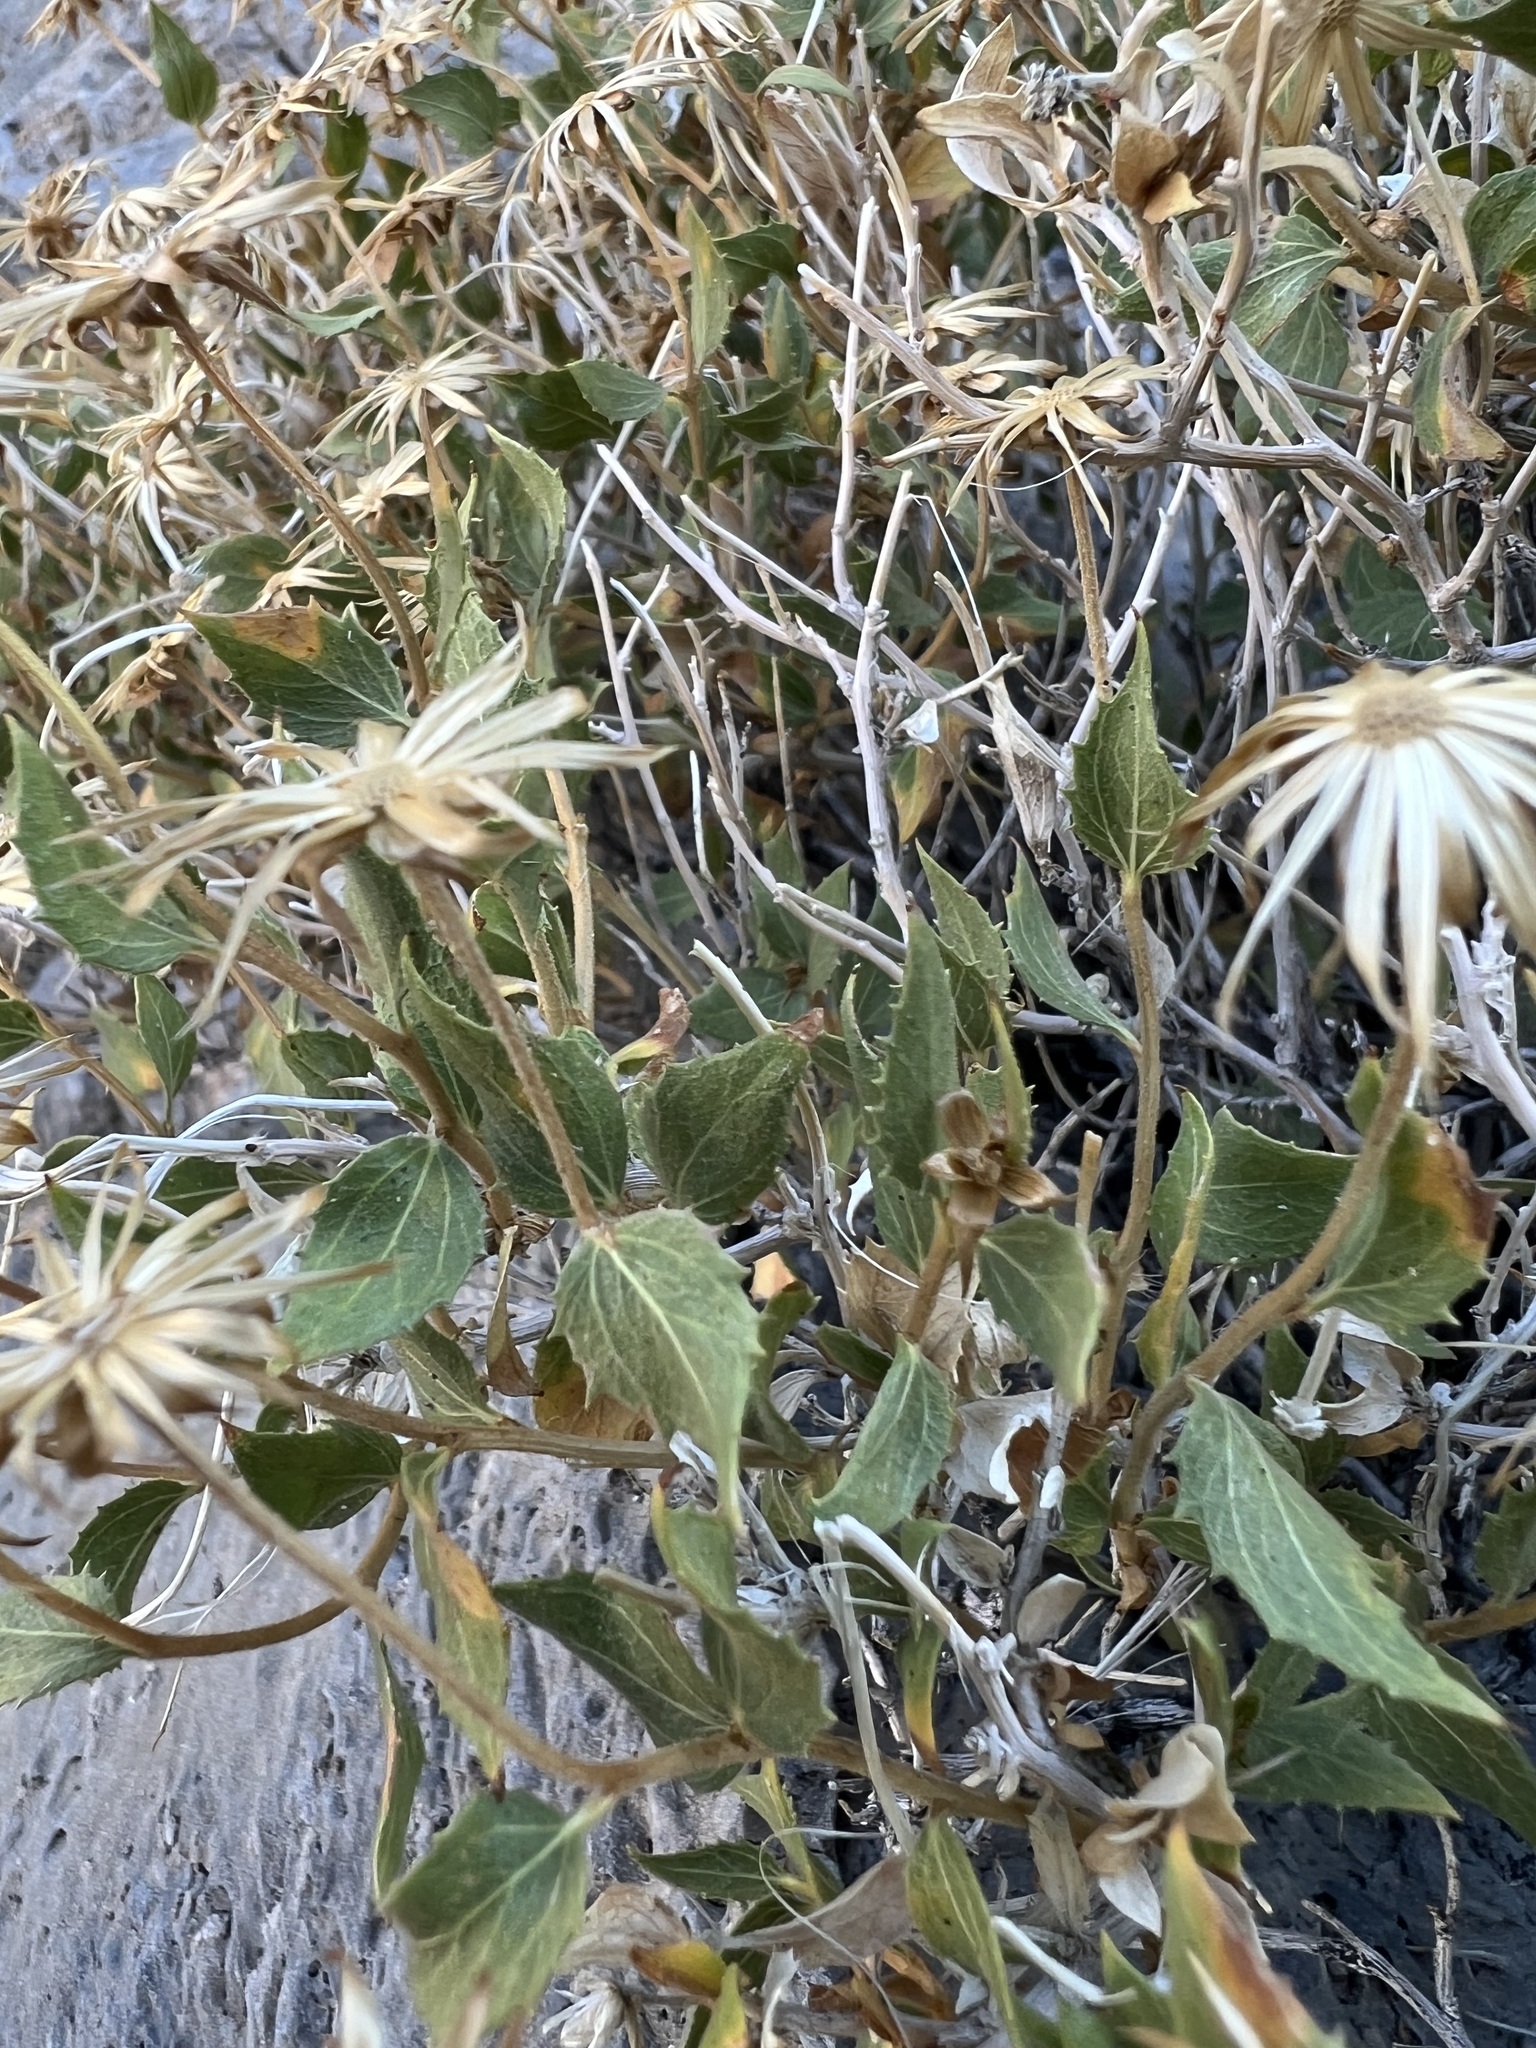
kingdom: Plantae
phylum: Tracheophyta
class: Magnoliopsida
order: Asterales
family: Asteraceae
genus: Brickellia
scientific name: Brickellia atractyloides
